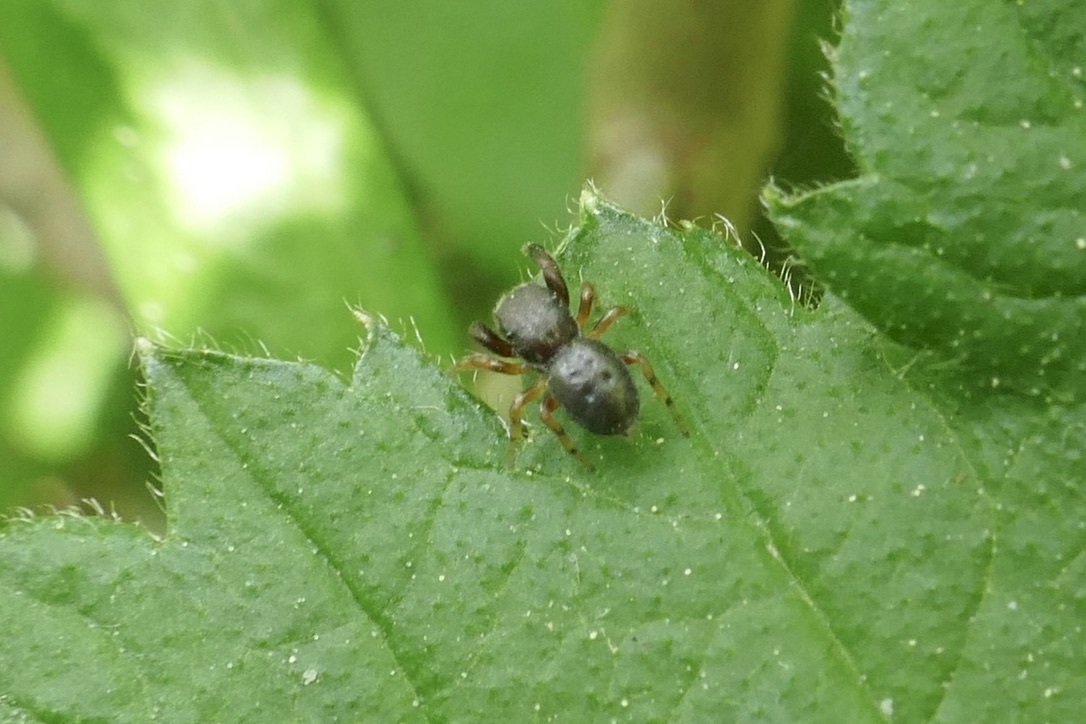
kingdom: Animalia
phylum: Arthropoda
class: Arachnida
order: Araneae
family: Salticidae
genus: Ballus
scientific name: Ballus chalybeius
